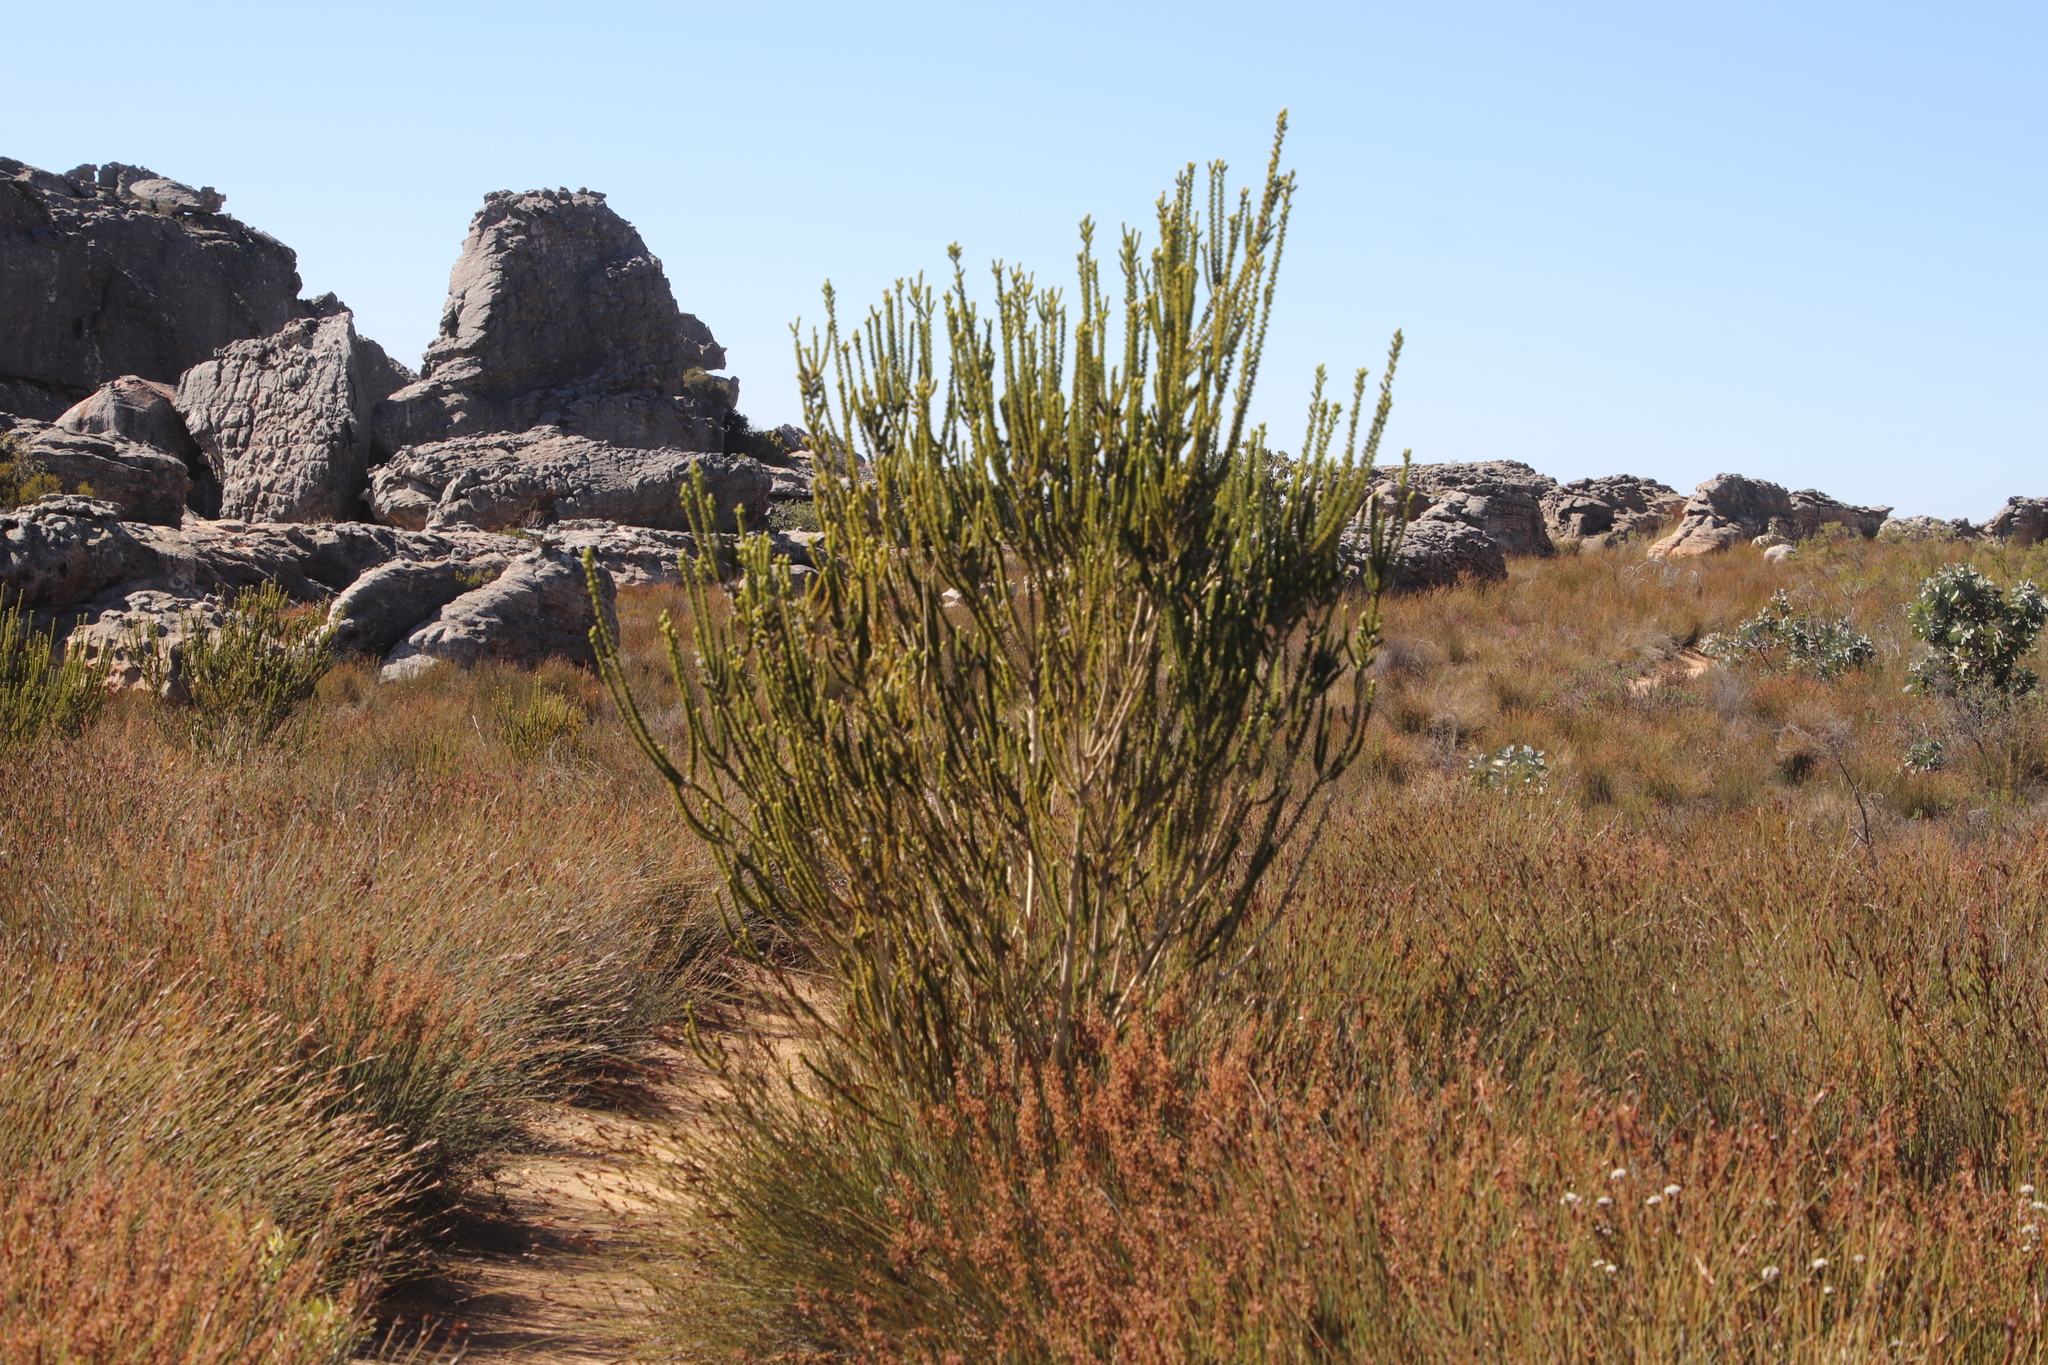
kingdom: Plantae
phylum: Tracheophyta
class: Magnoliopsida
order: Fabales
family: Fabaceae
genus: Aspalathus
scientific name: Aspalathus triquetra
